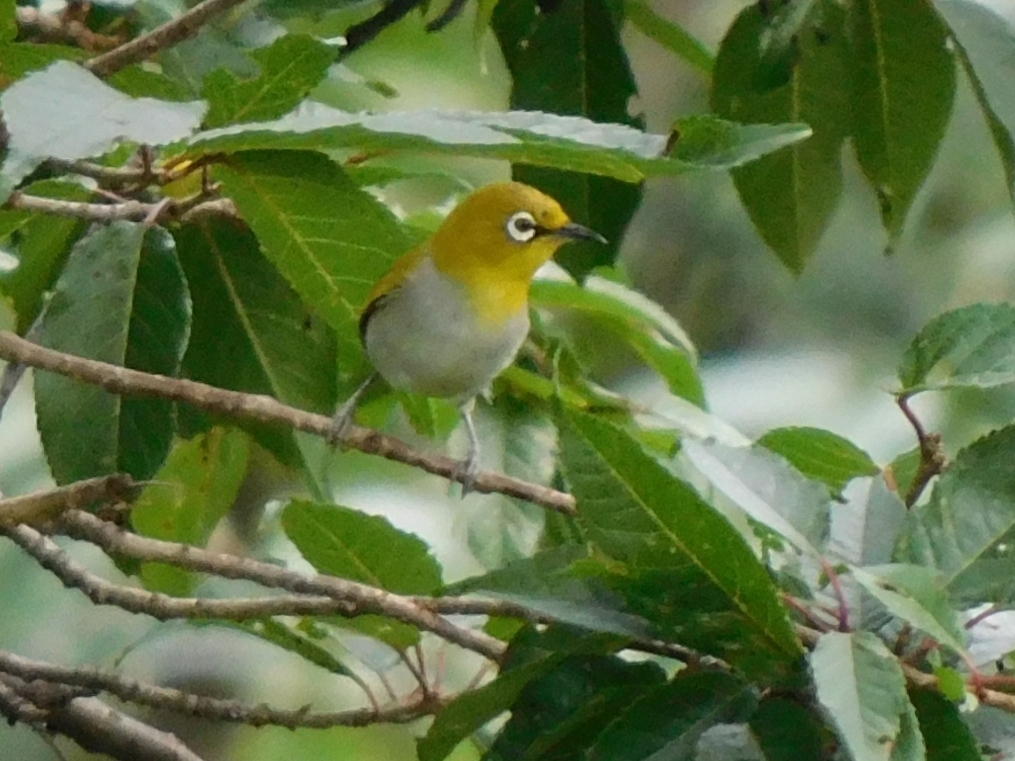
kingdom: Animalia
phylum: Chordata
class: Aves
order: Passeriformes
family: Zosteropidae
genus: Zosterops
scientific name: Zosterops palpebrosus
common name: Oriental white-eye
